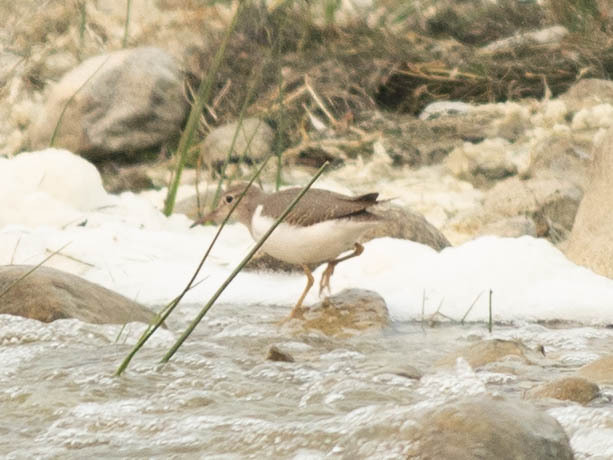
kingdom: Animalia
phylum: Chordata
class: Aves
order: Charadriiformes
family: Scolopacidae
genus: Actitis
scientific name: Actitis macularius
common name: Spotted sandpiper
